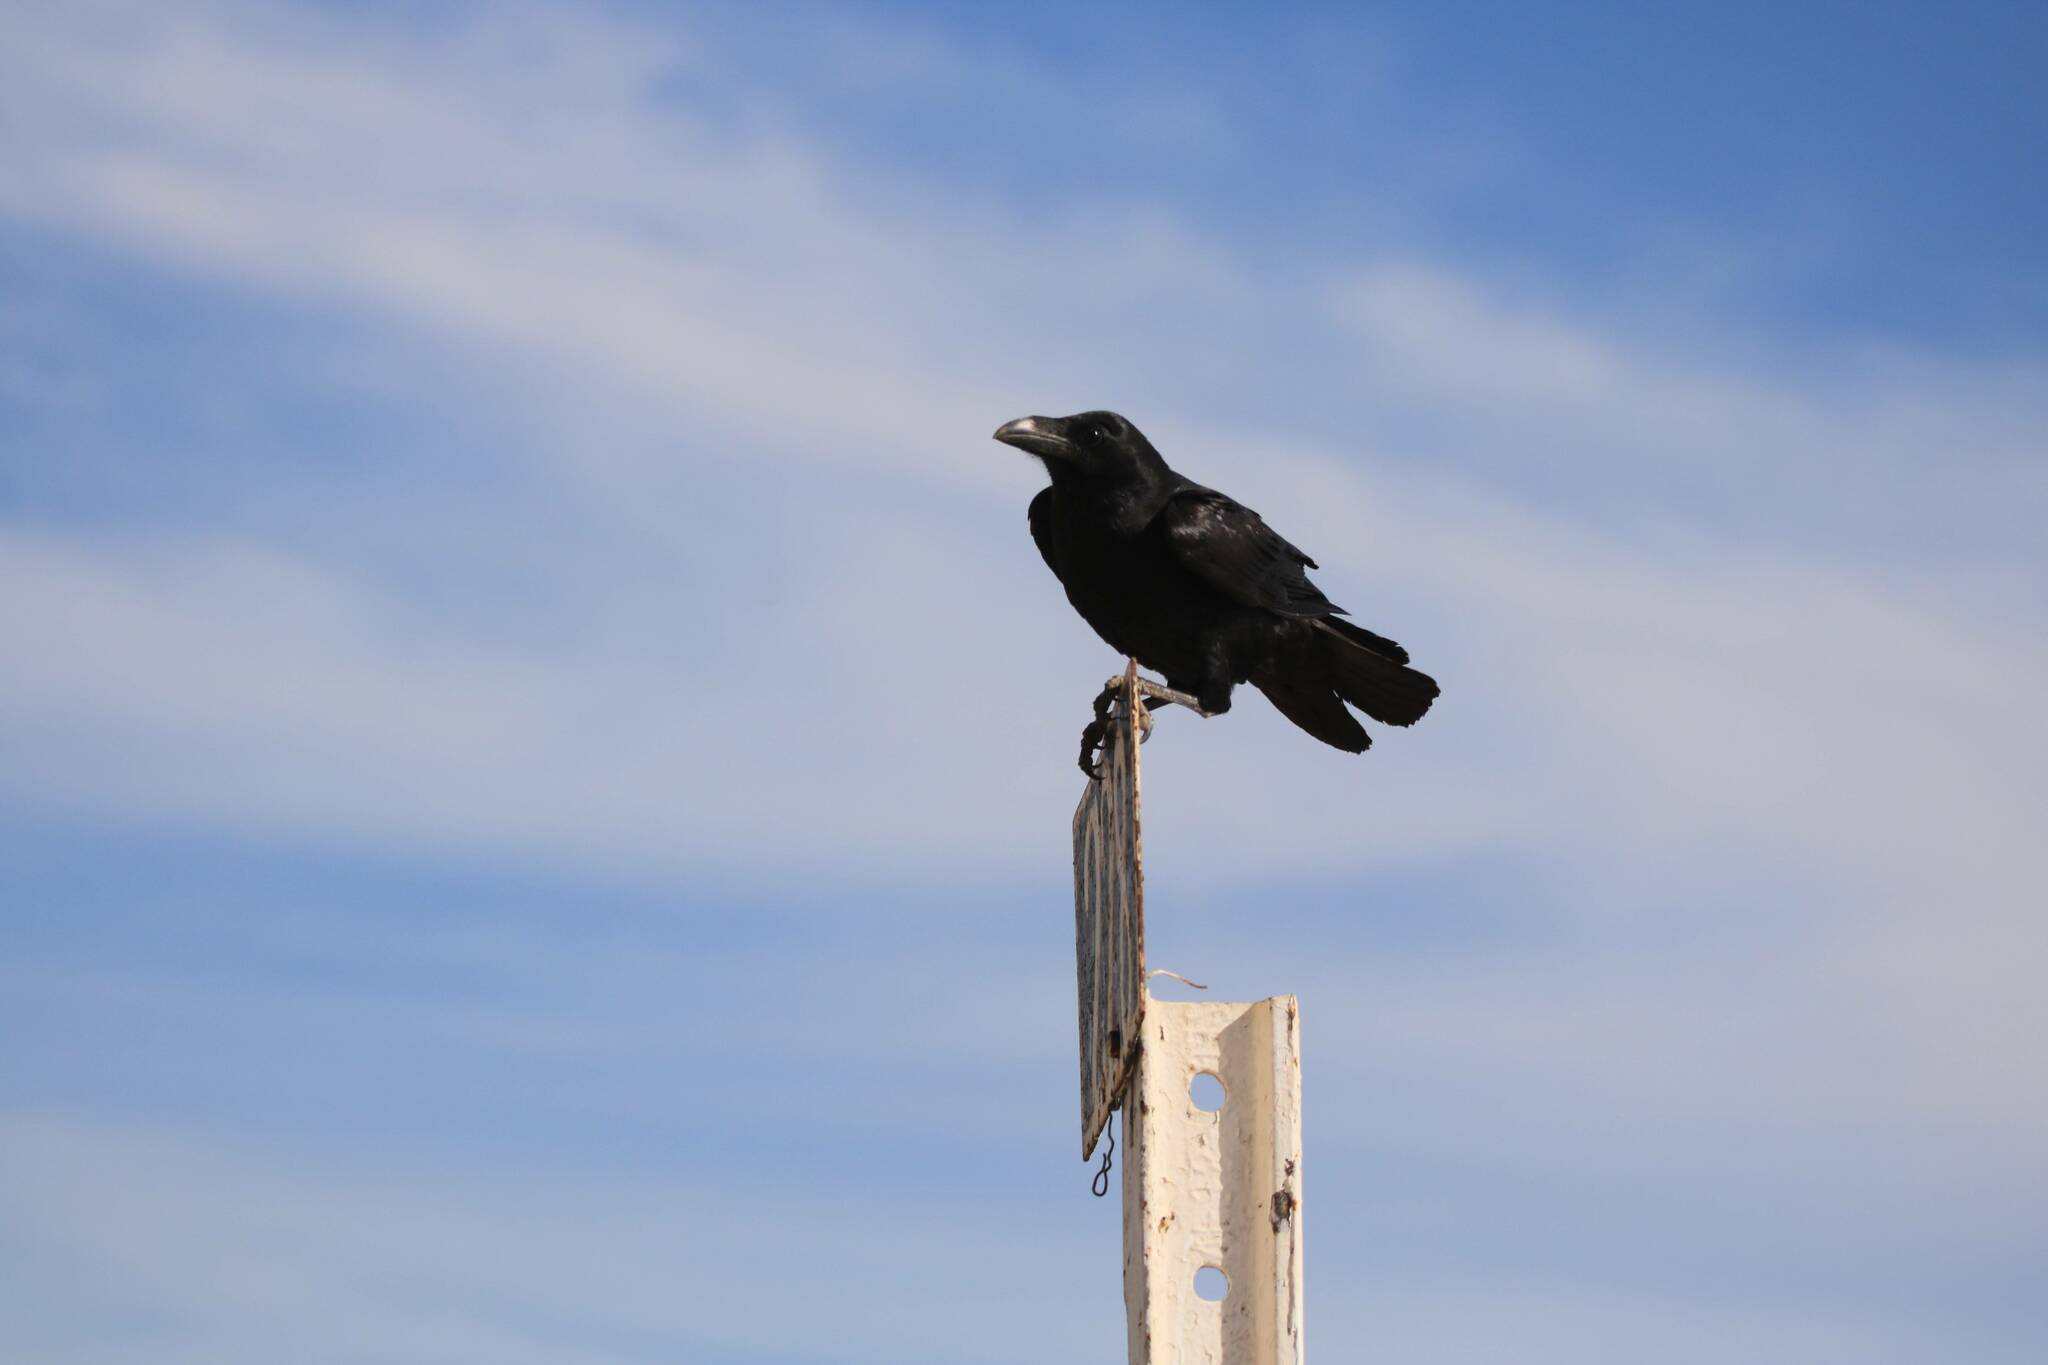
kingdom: Animalia
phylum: Chordata
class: Aves
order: Passeriformes
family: Corvidae
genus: Corvus
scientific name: Corvus corax
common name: Common raven
